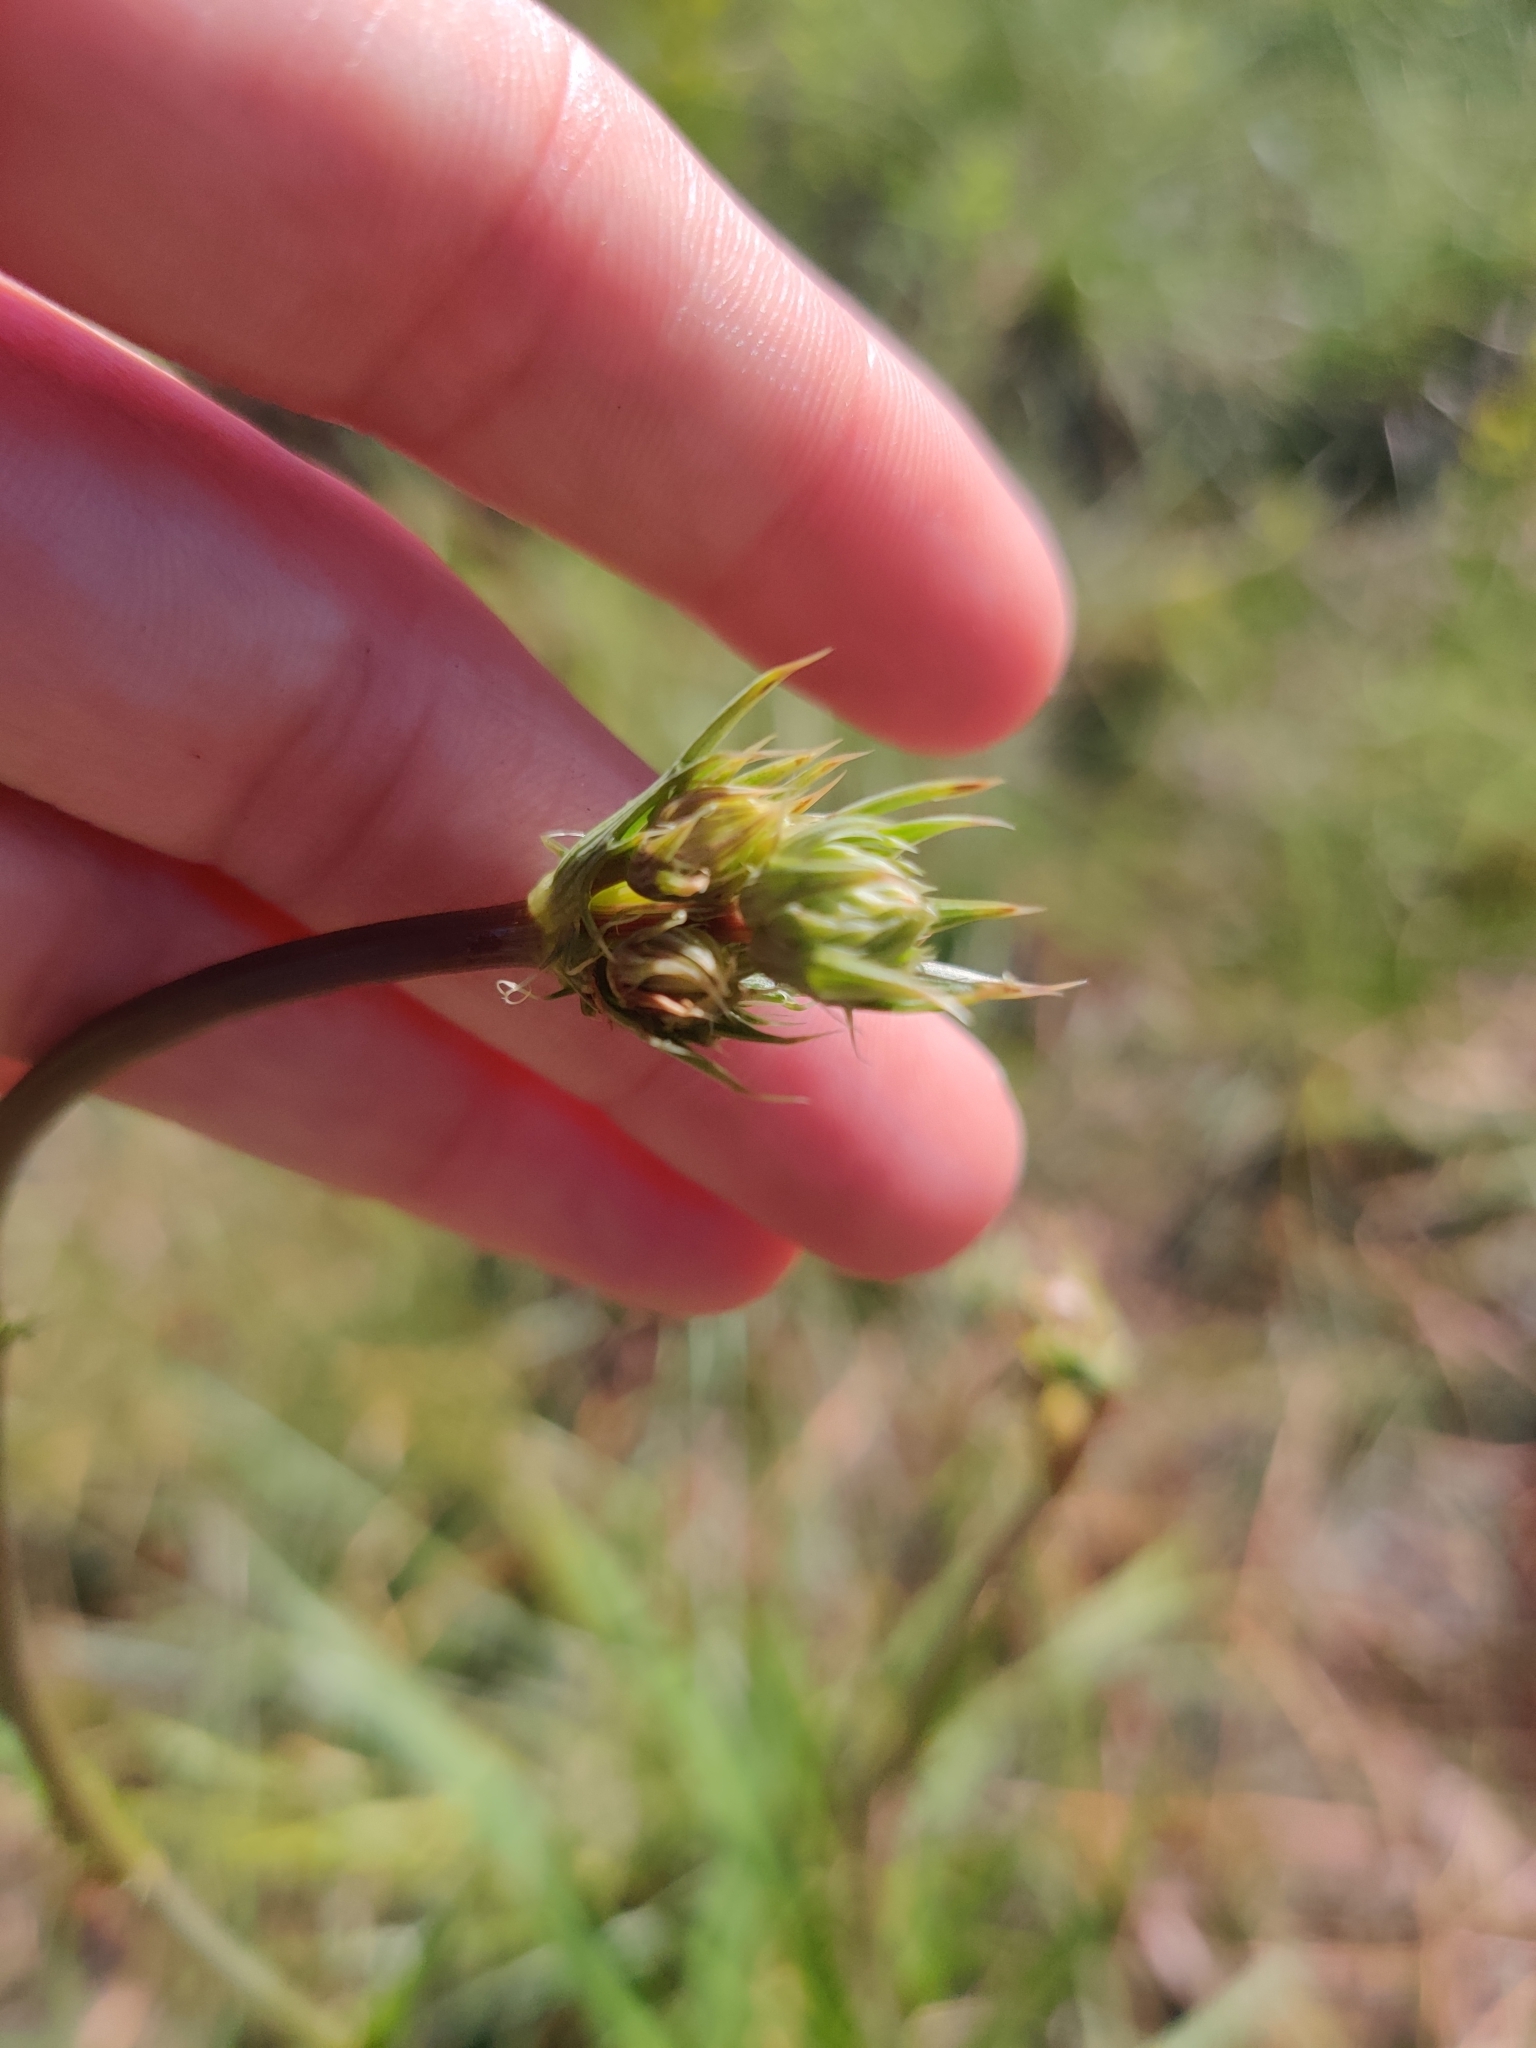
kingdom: Plantae
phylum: Tracheophyta
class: Magnoliopsida
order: Apiales
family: Apiaceae
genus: Eryngium
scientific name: Eryngium yuccifolium
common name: Button eryngo
